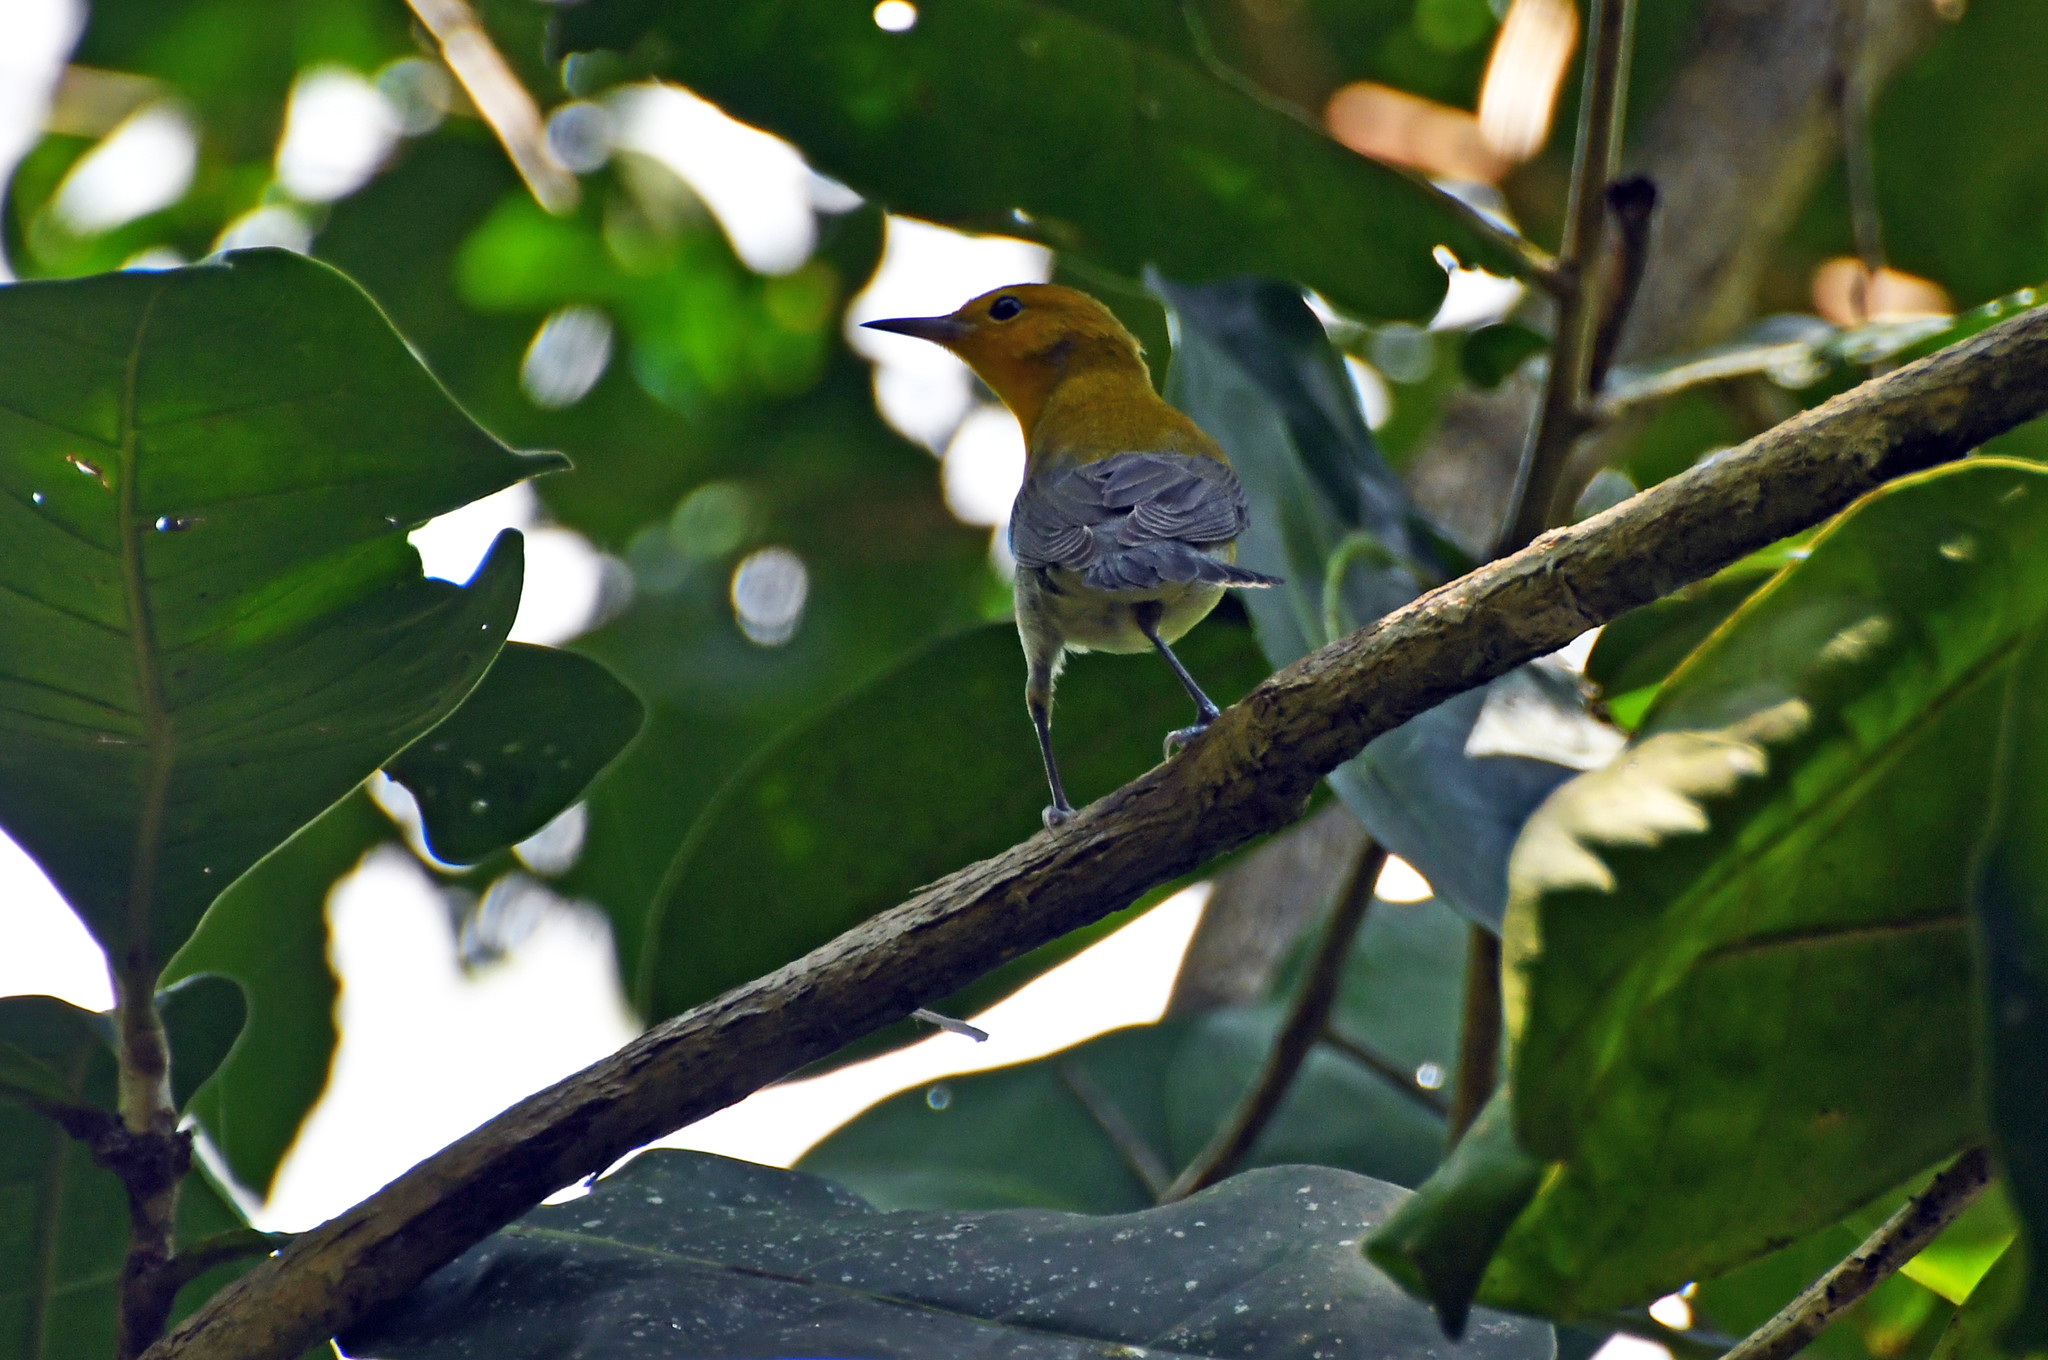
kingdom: Animalia
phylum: Chordata
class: Aves
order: Passeriformes
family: Parulidae
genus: Protonotaria
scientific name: Protonotaria citrea
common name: Prothonotary warbler
